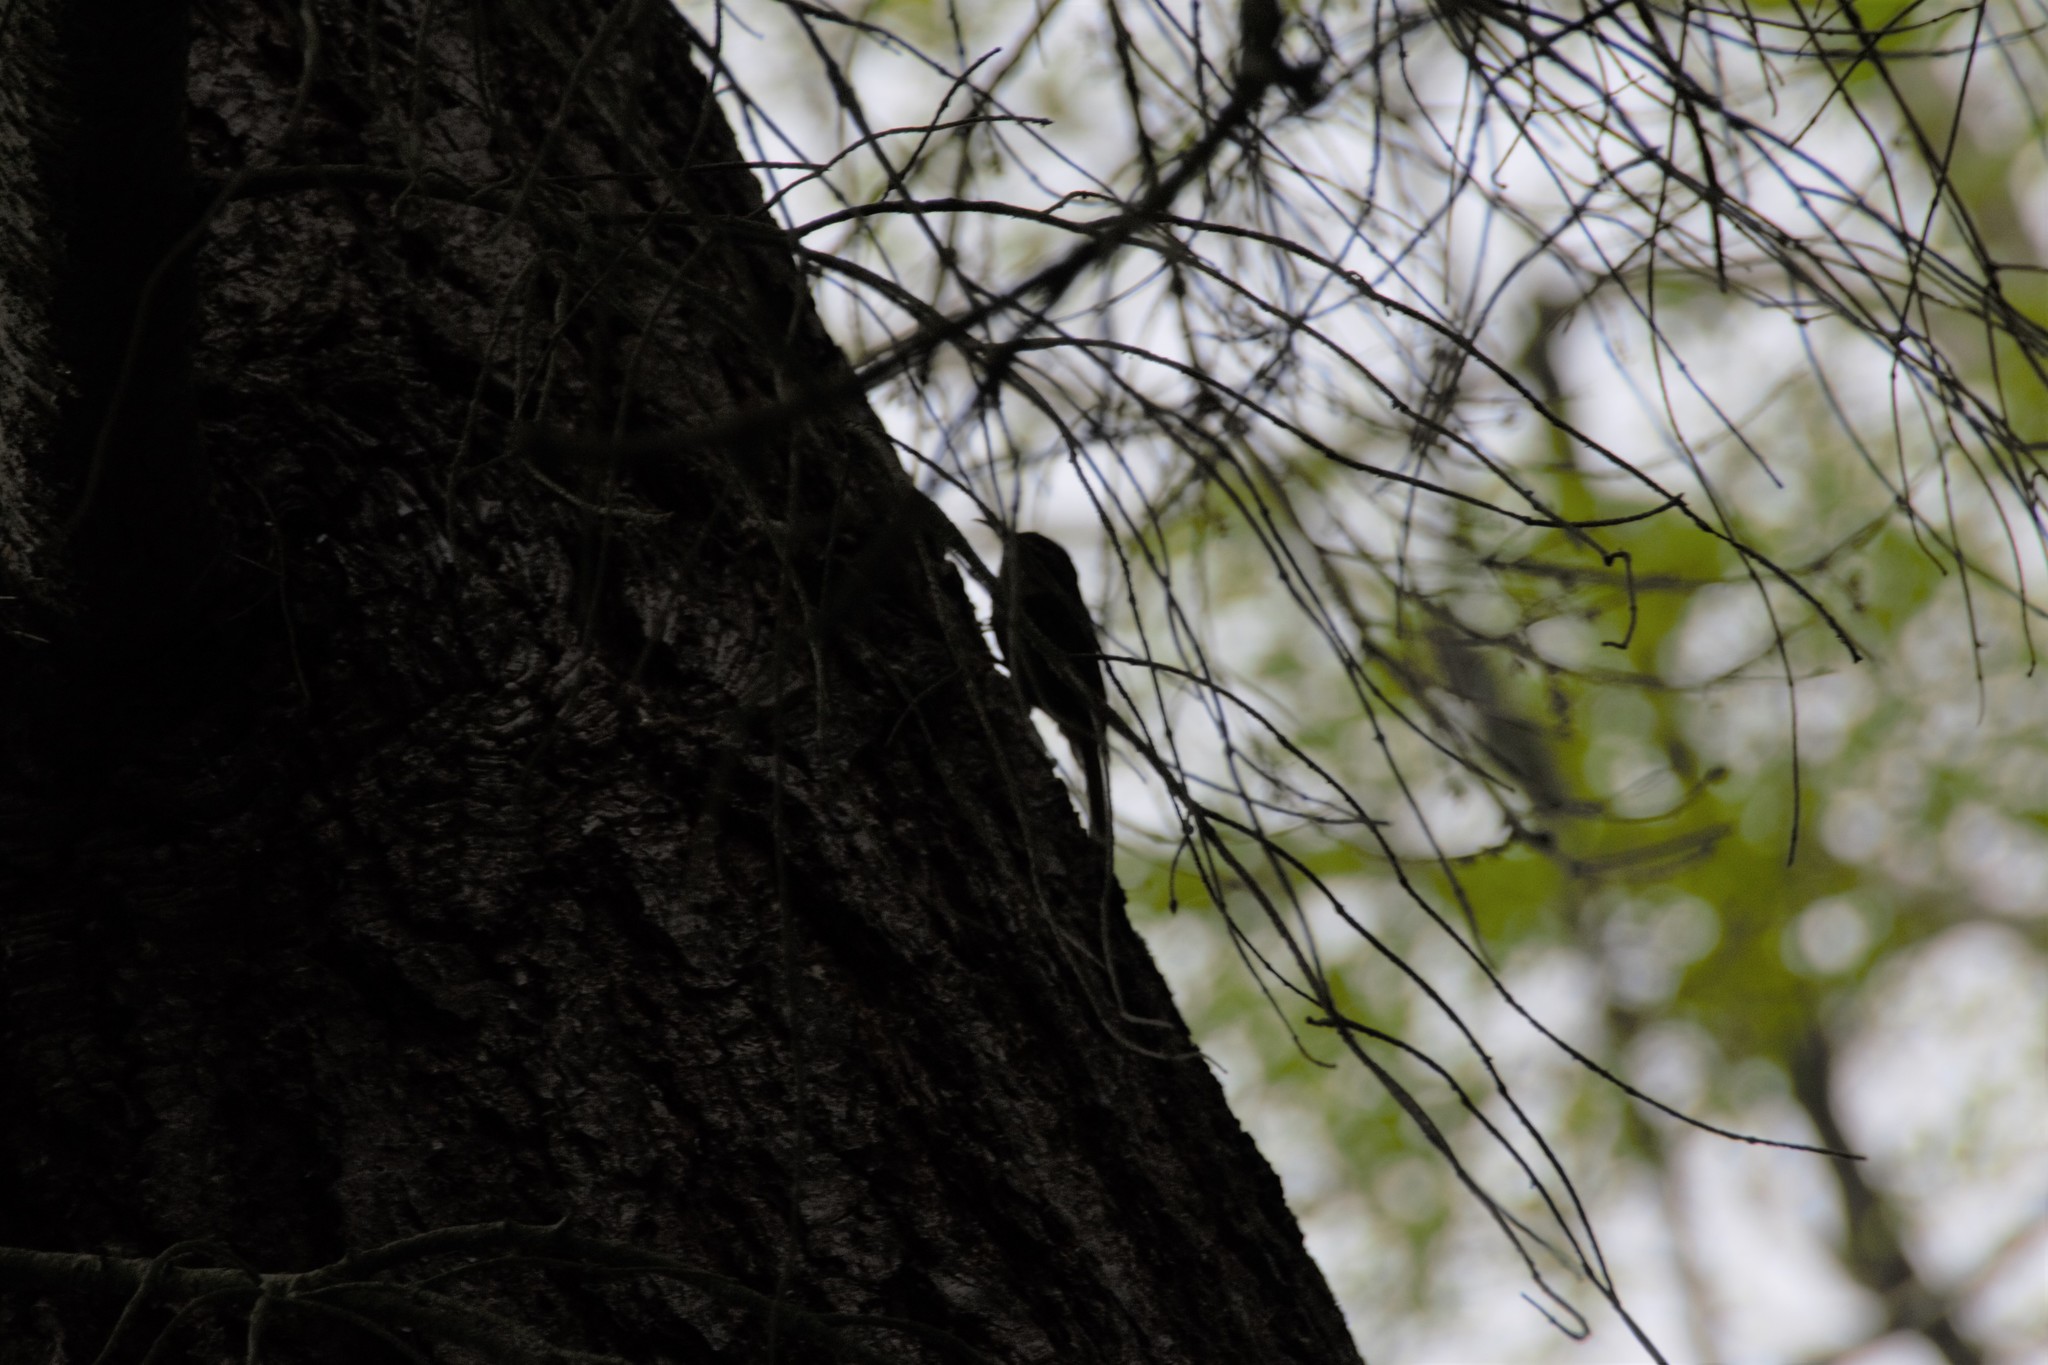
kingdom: Animalia
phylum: Chordata
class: Aves
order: Passeriformes
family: Certhiidae
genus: Certhia
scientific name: Certhia americana
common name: Brown creeper
